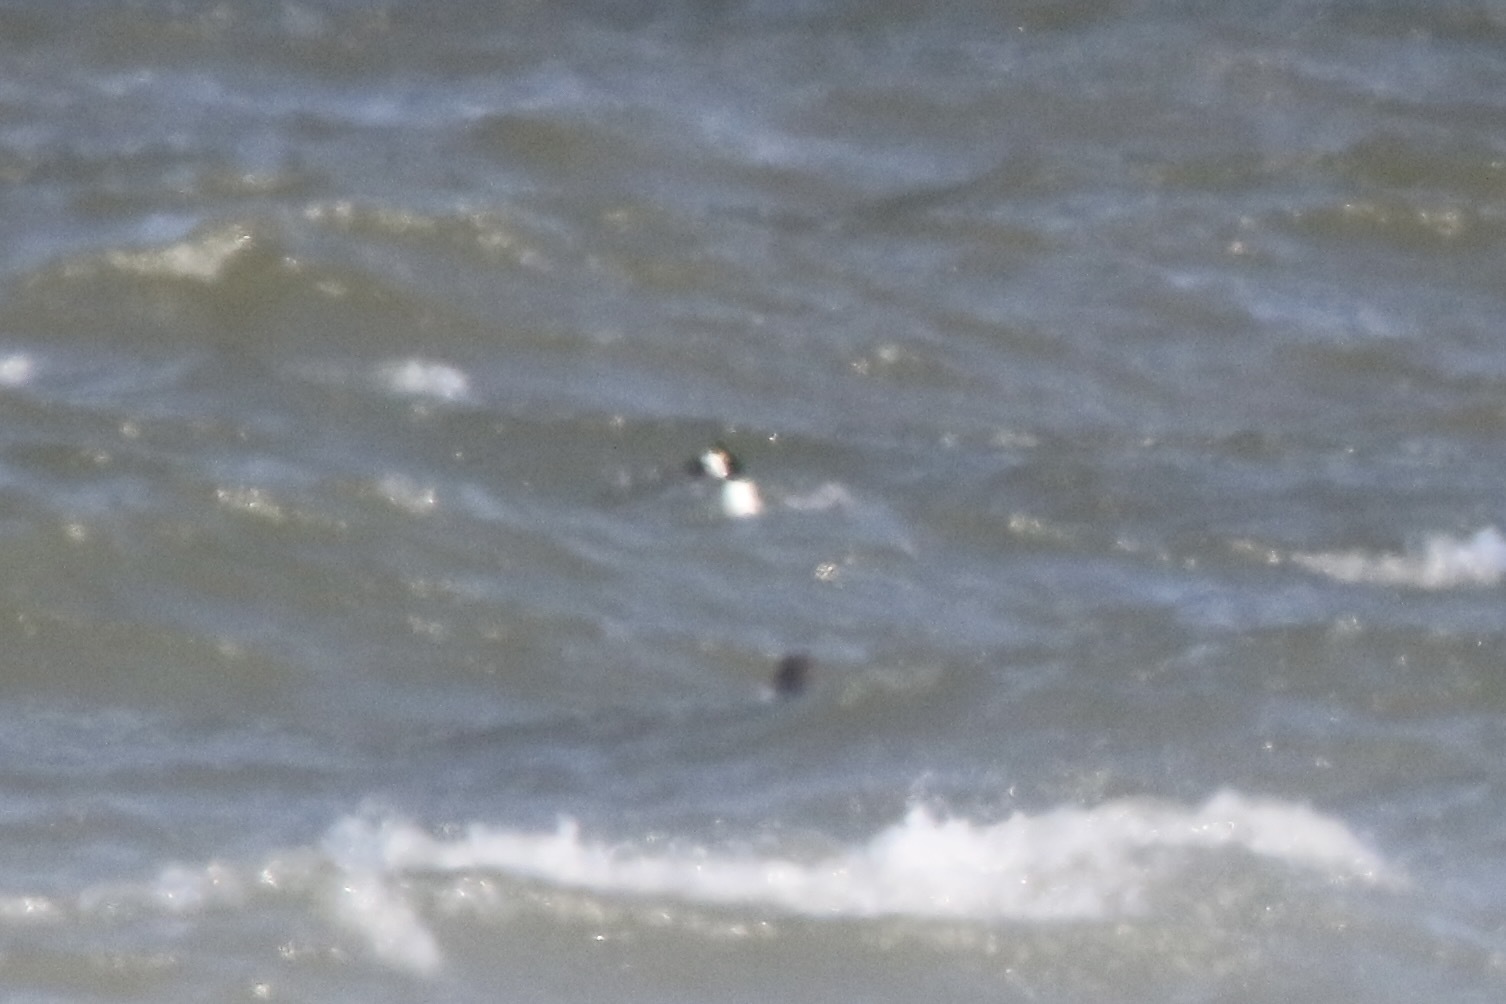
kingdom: Animalia
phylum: Chordata
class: Aves
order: Anseriformes
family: Anatidae
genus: Bucephala
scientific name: Bucephala
